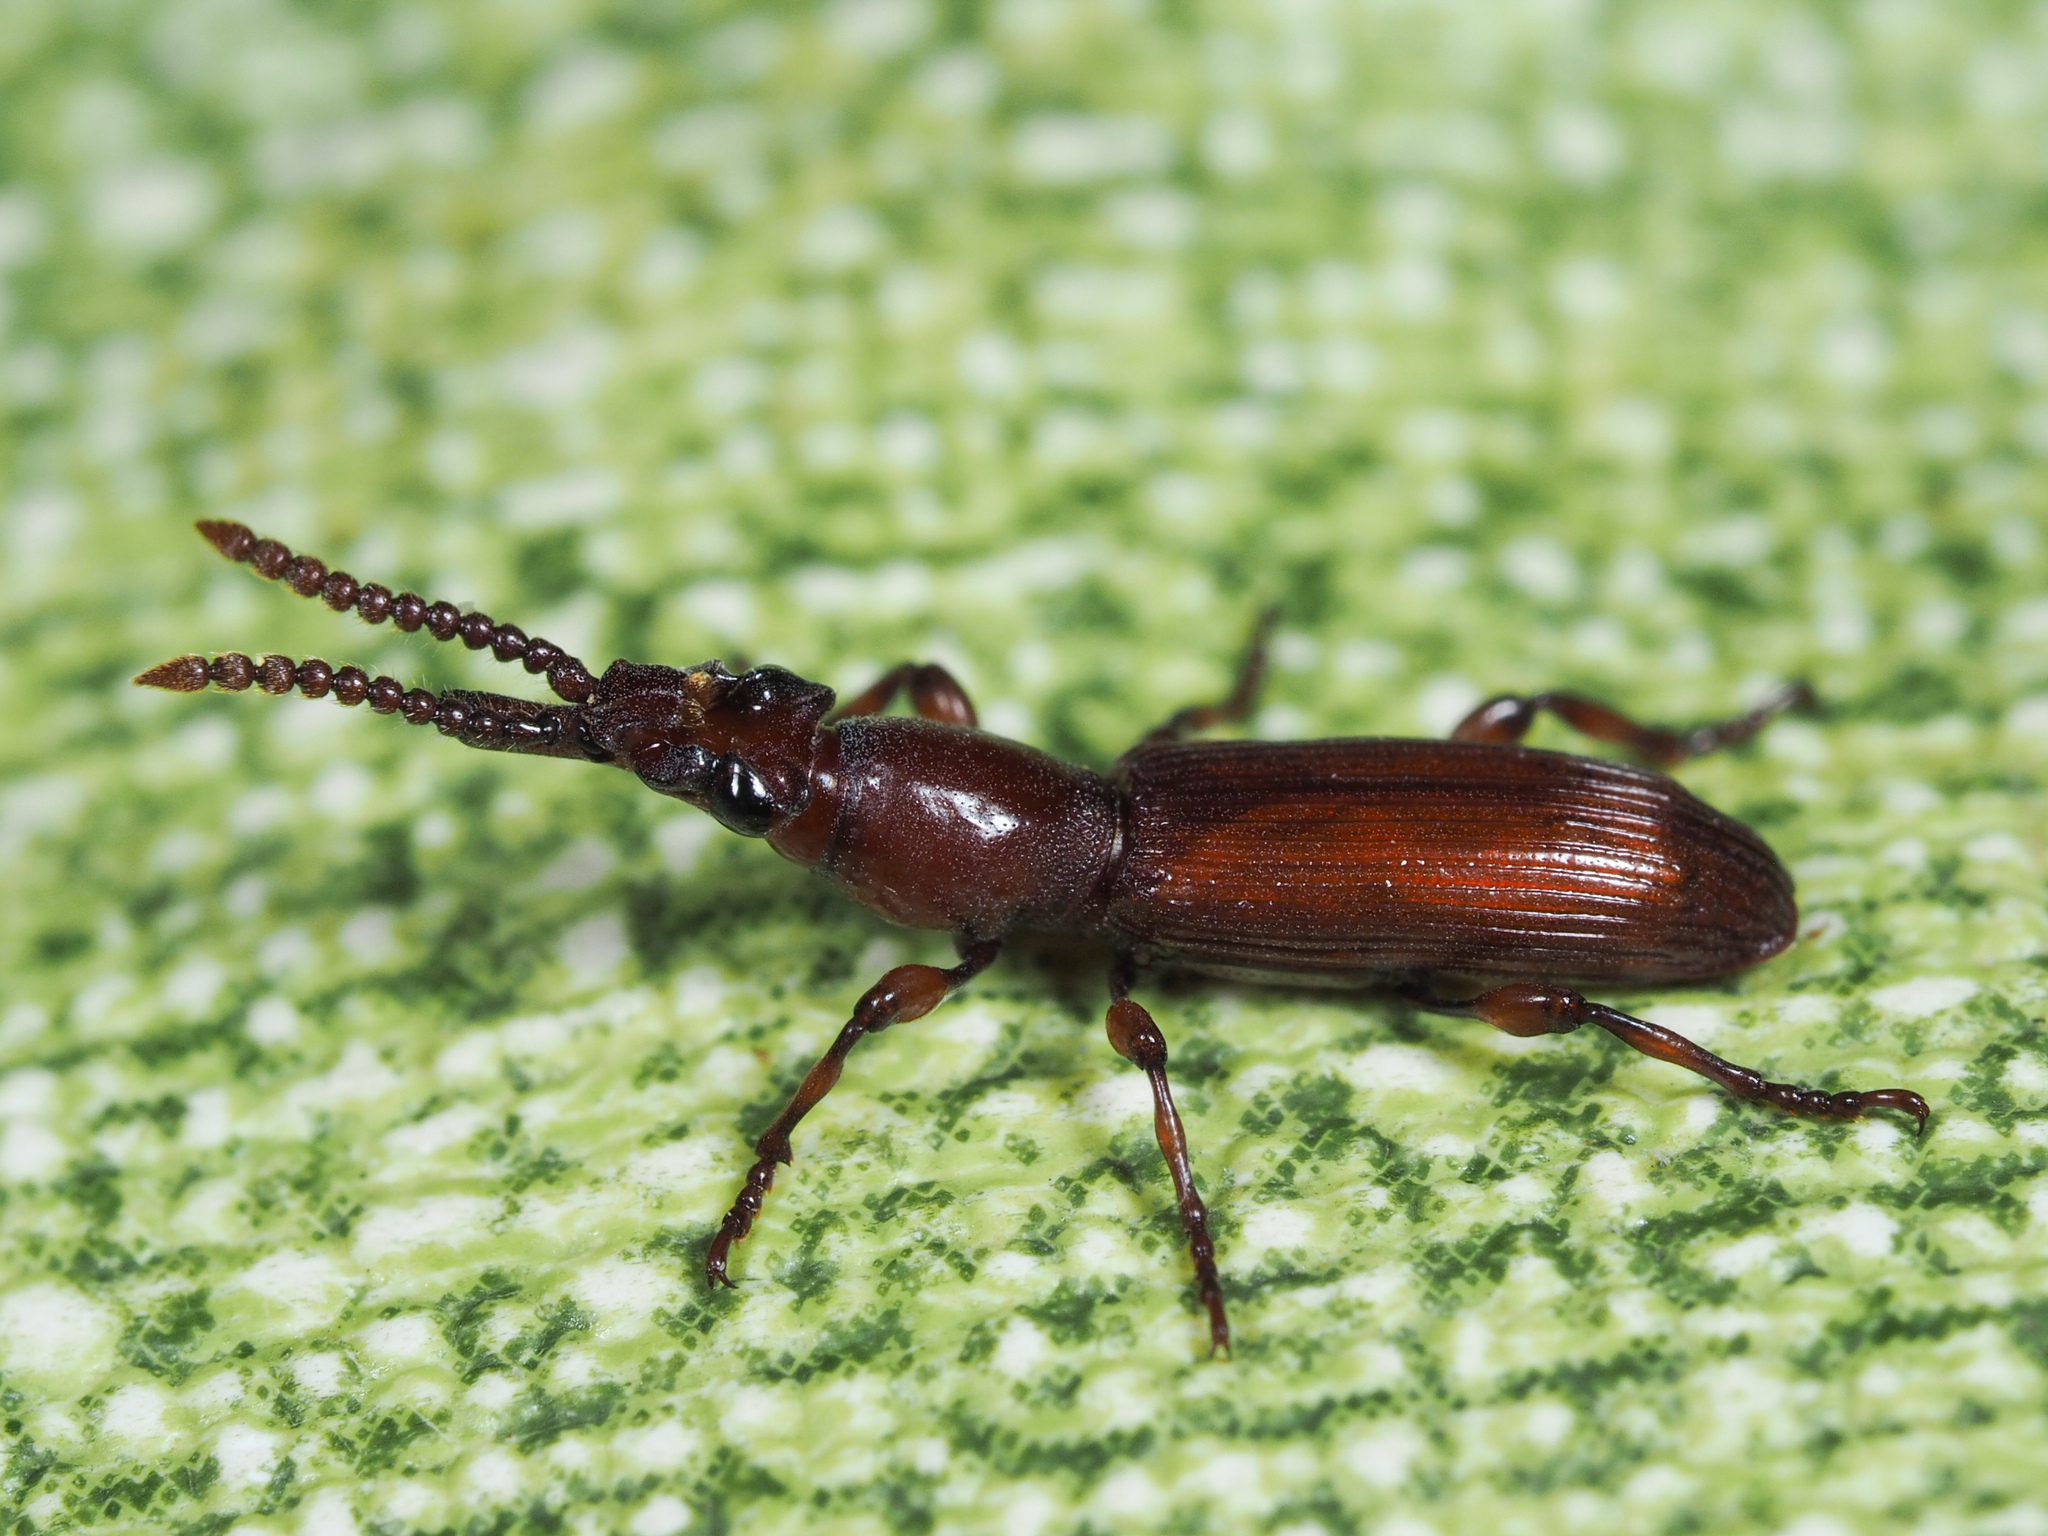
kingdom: Animalia
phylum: Arthropoda
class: Insecta
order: Coleoptera
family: Brentidae
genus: Amorphocephala
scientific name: Amorphocephala coronata
